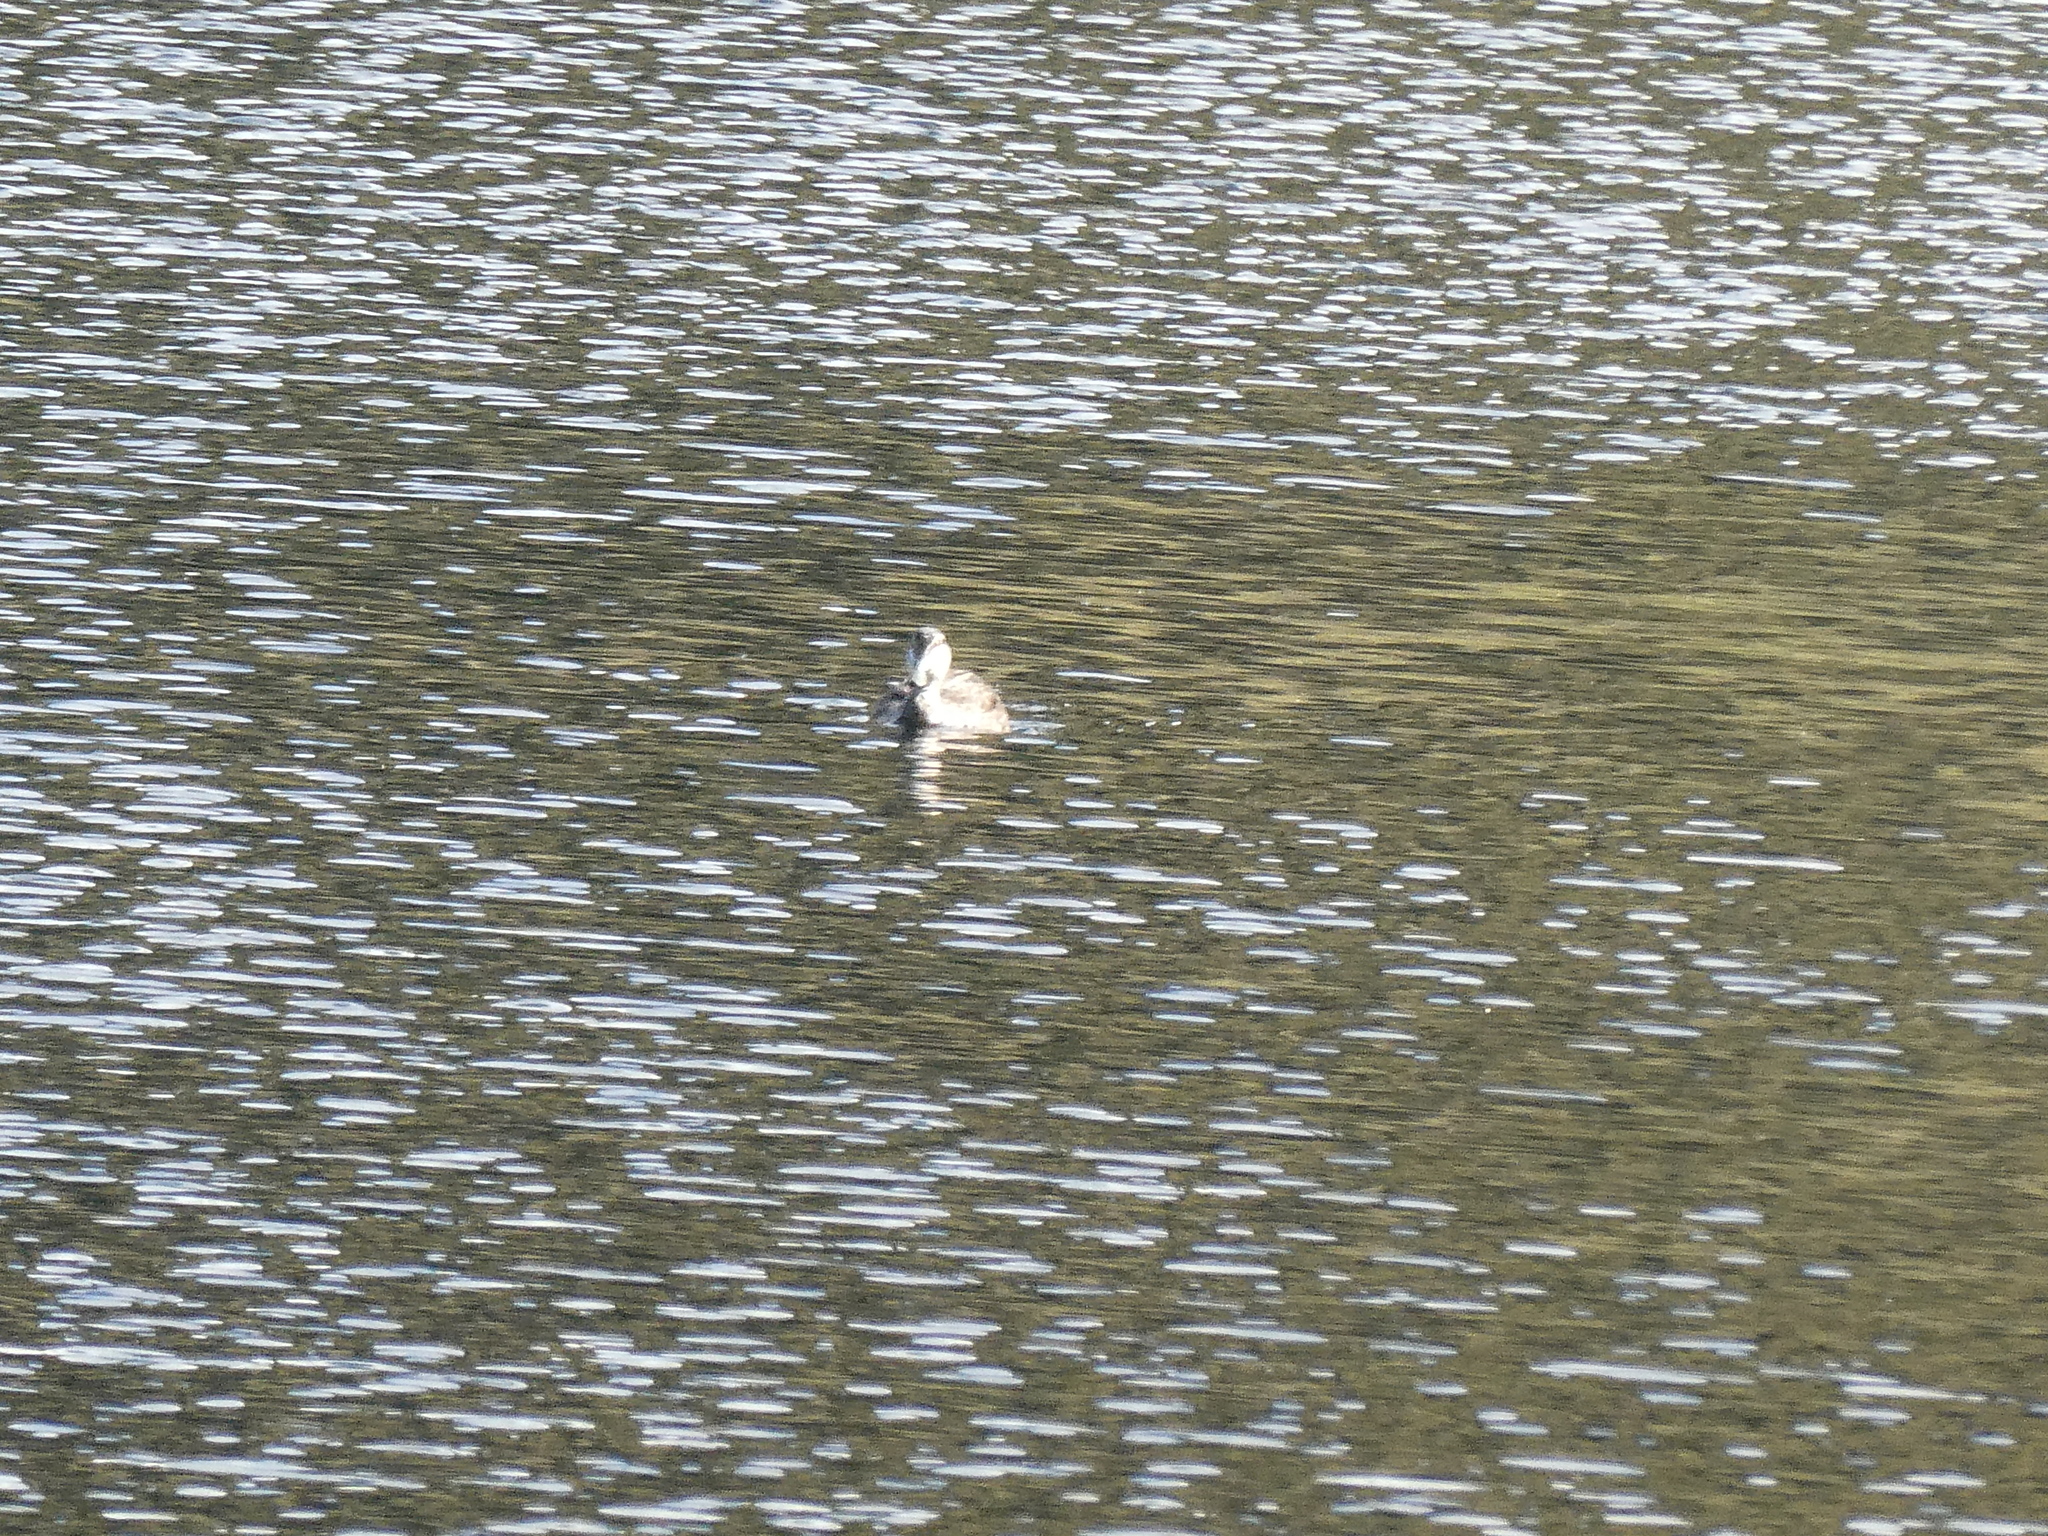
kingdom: Animalia
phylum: Chordata
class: Aves
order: Anseriformes
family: Anatidae
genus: Anas
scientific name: Anas
